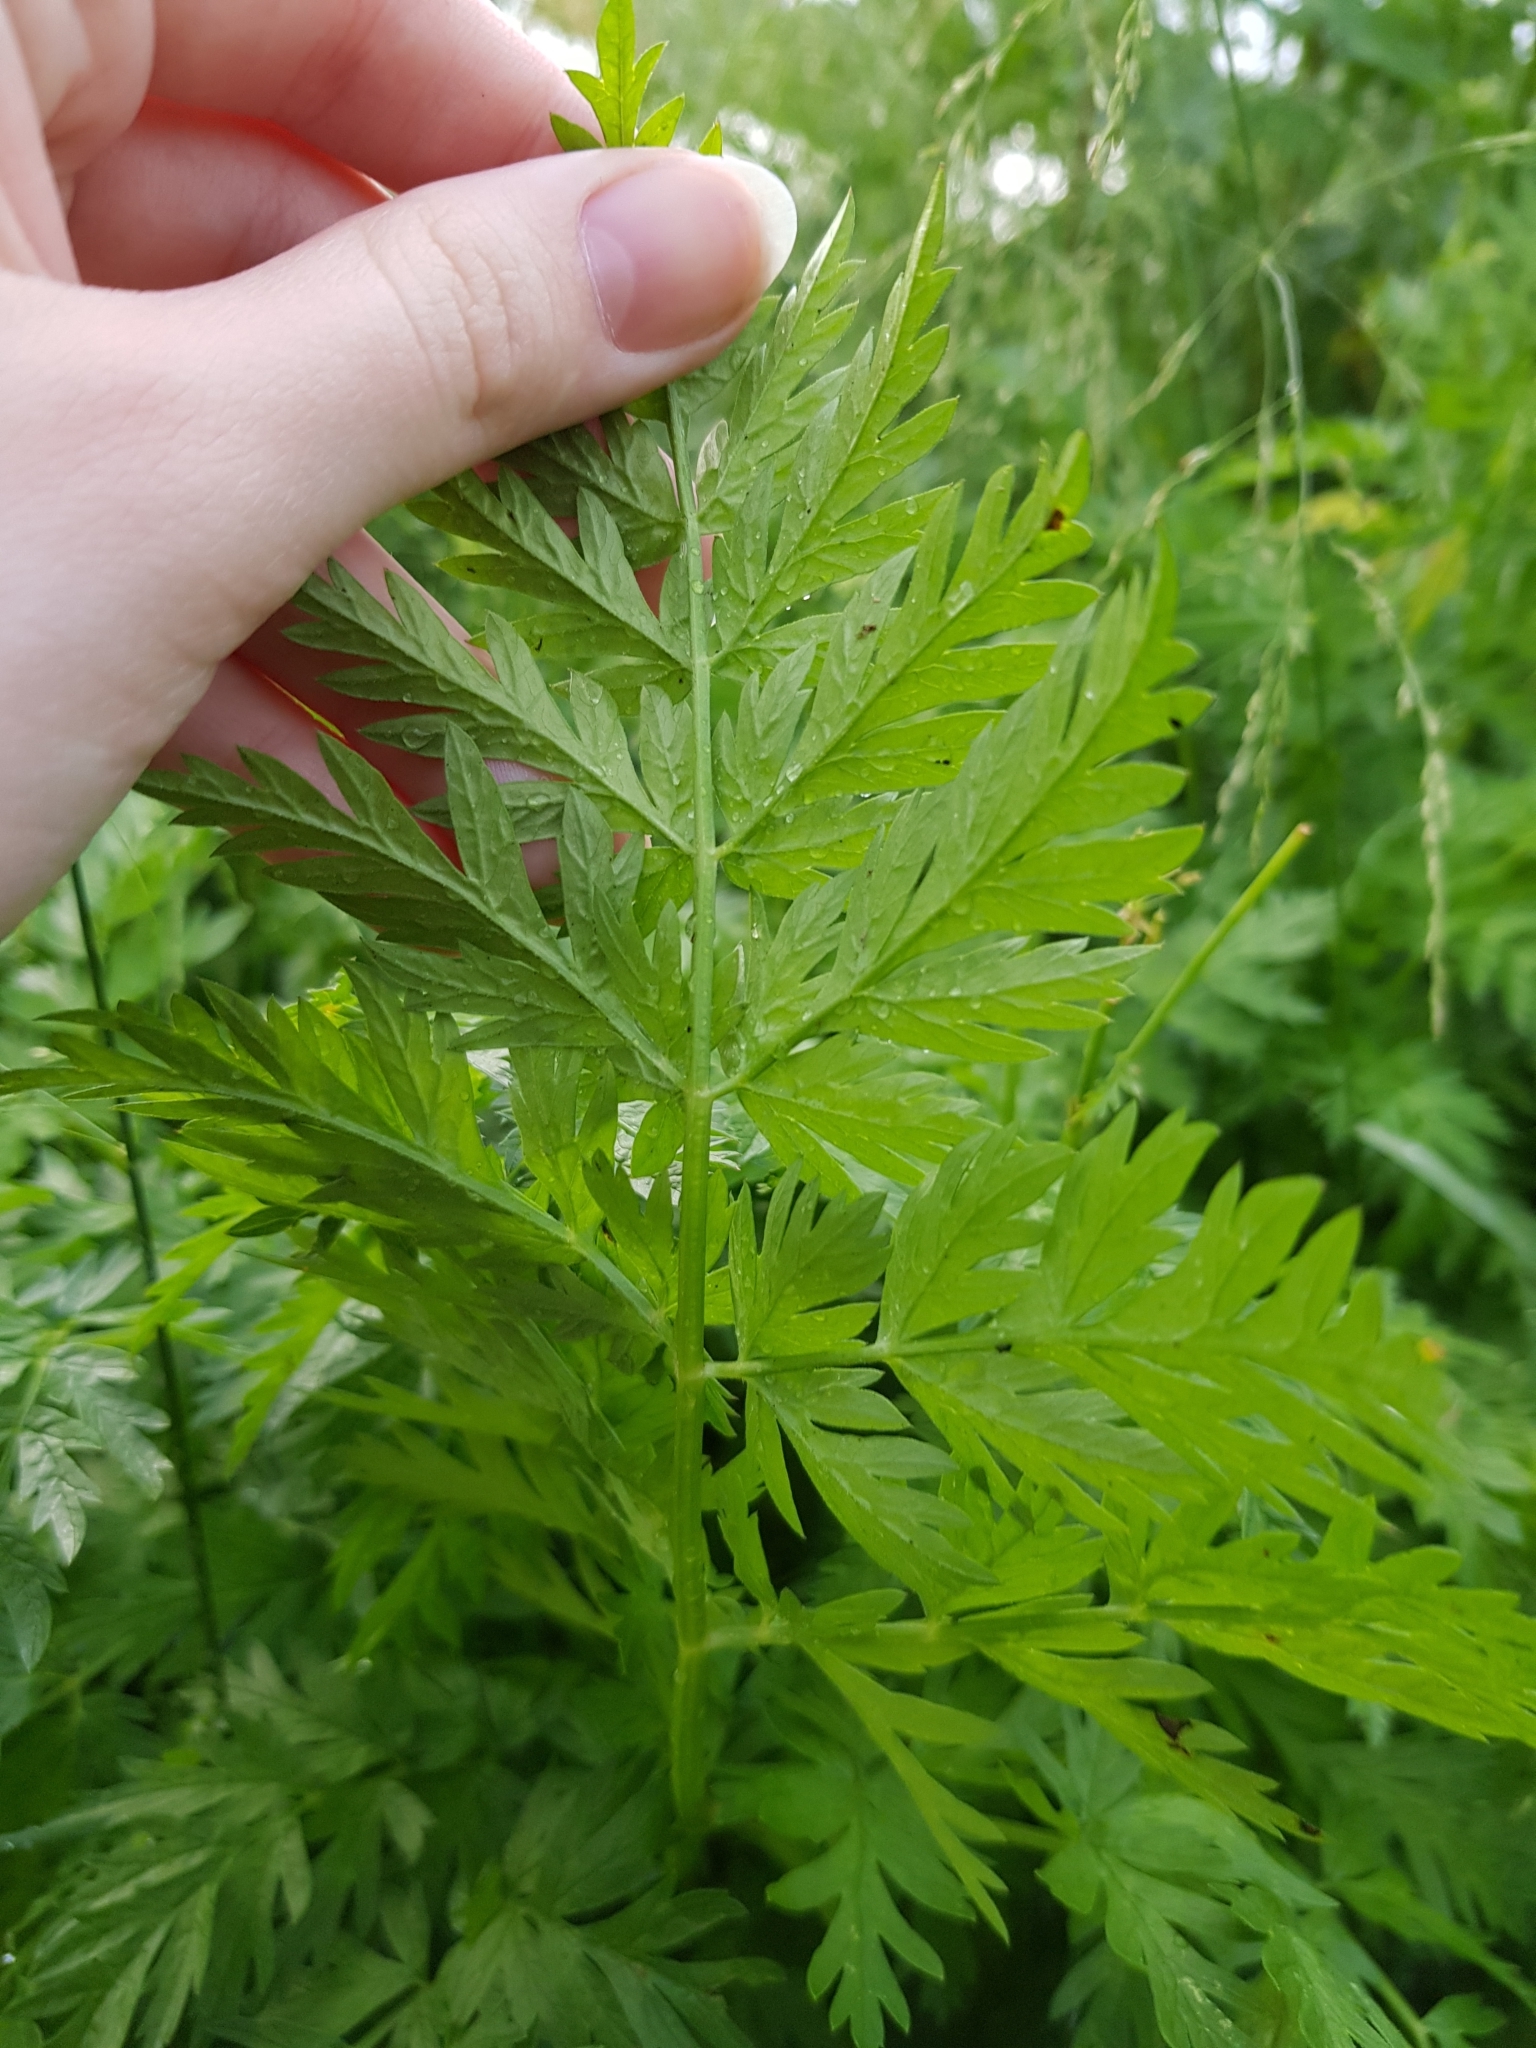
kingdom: Plantae
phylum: Tracheophyta
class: Magnoliopsida
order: Apiales
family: Apiaceae
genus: Anthriscus
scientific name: Anthriscus sylvestris
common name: Cow parsley
